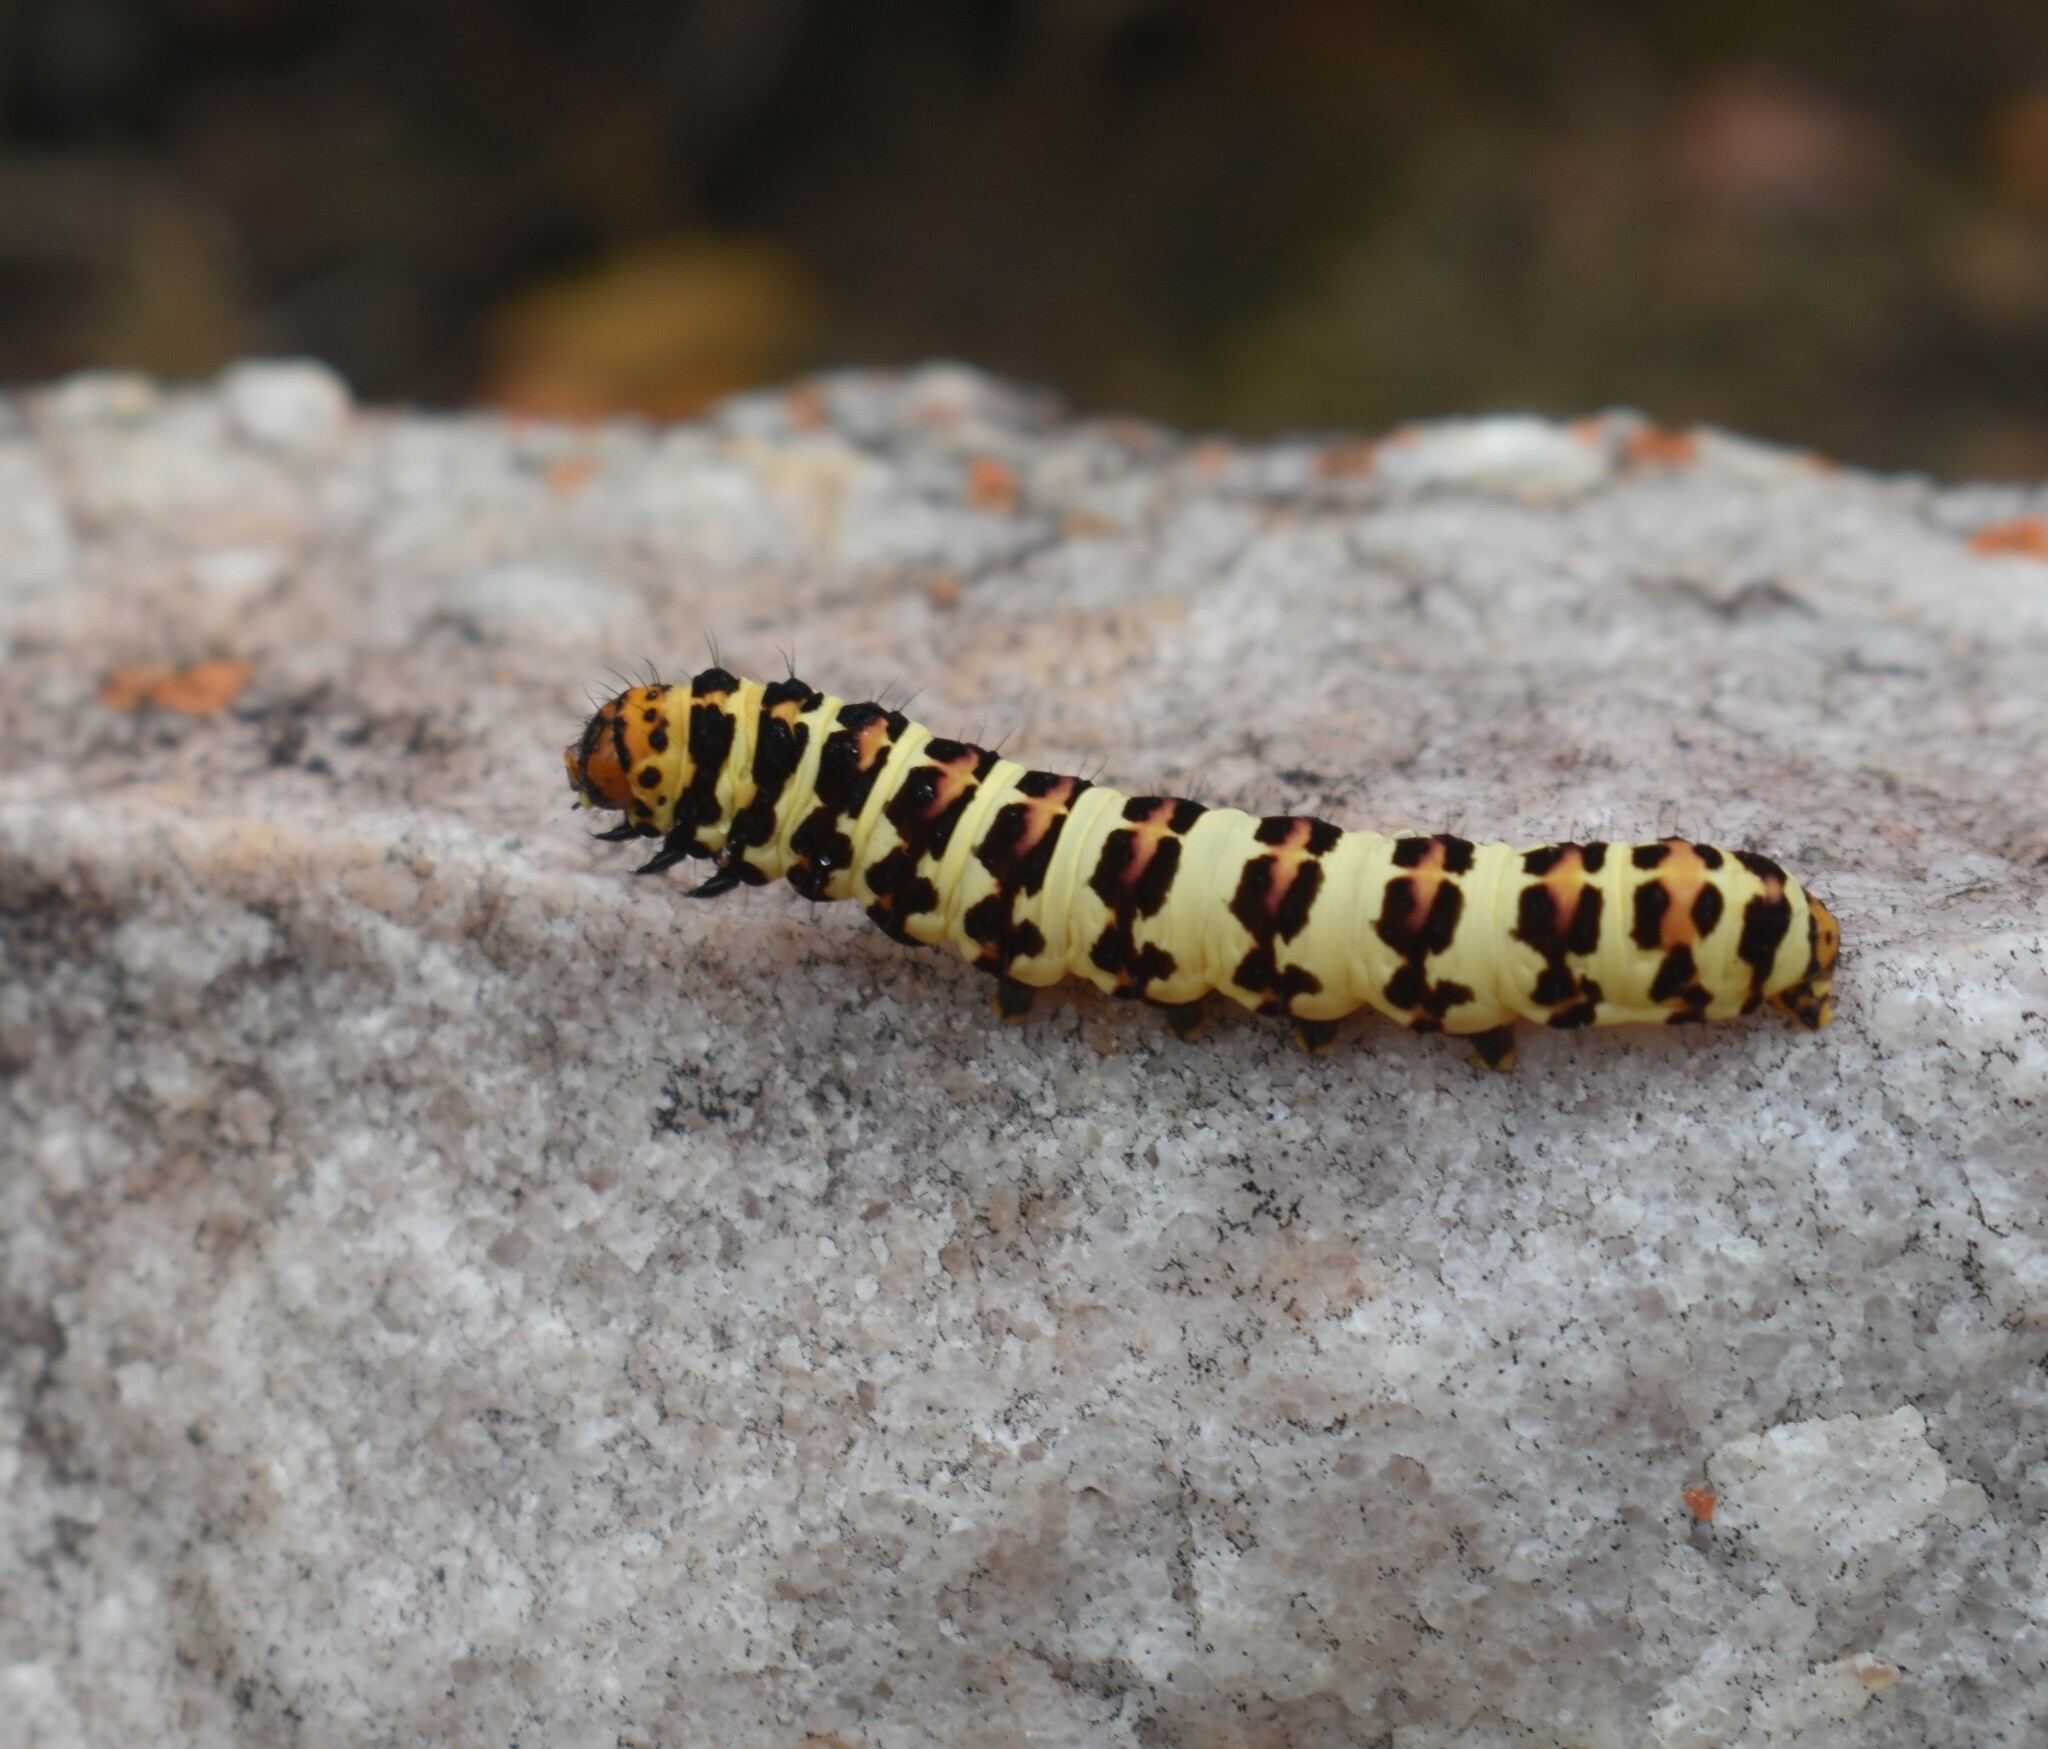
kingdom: Animalia
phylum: Arthropoda
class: Insecta
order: Lepidoptera
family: Noctuidae
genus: Diaphone
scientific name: Diaphone eumela
